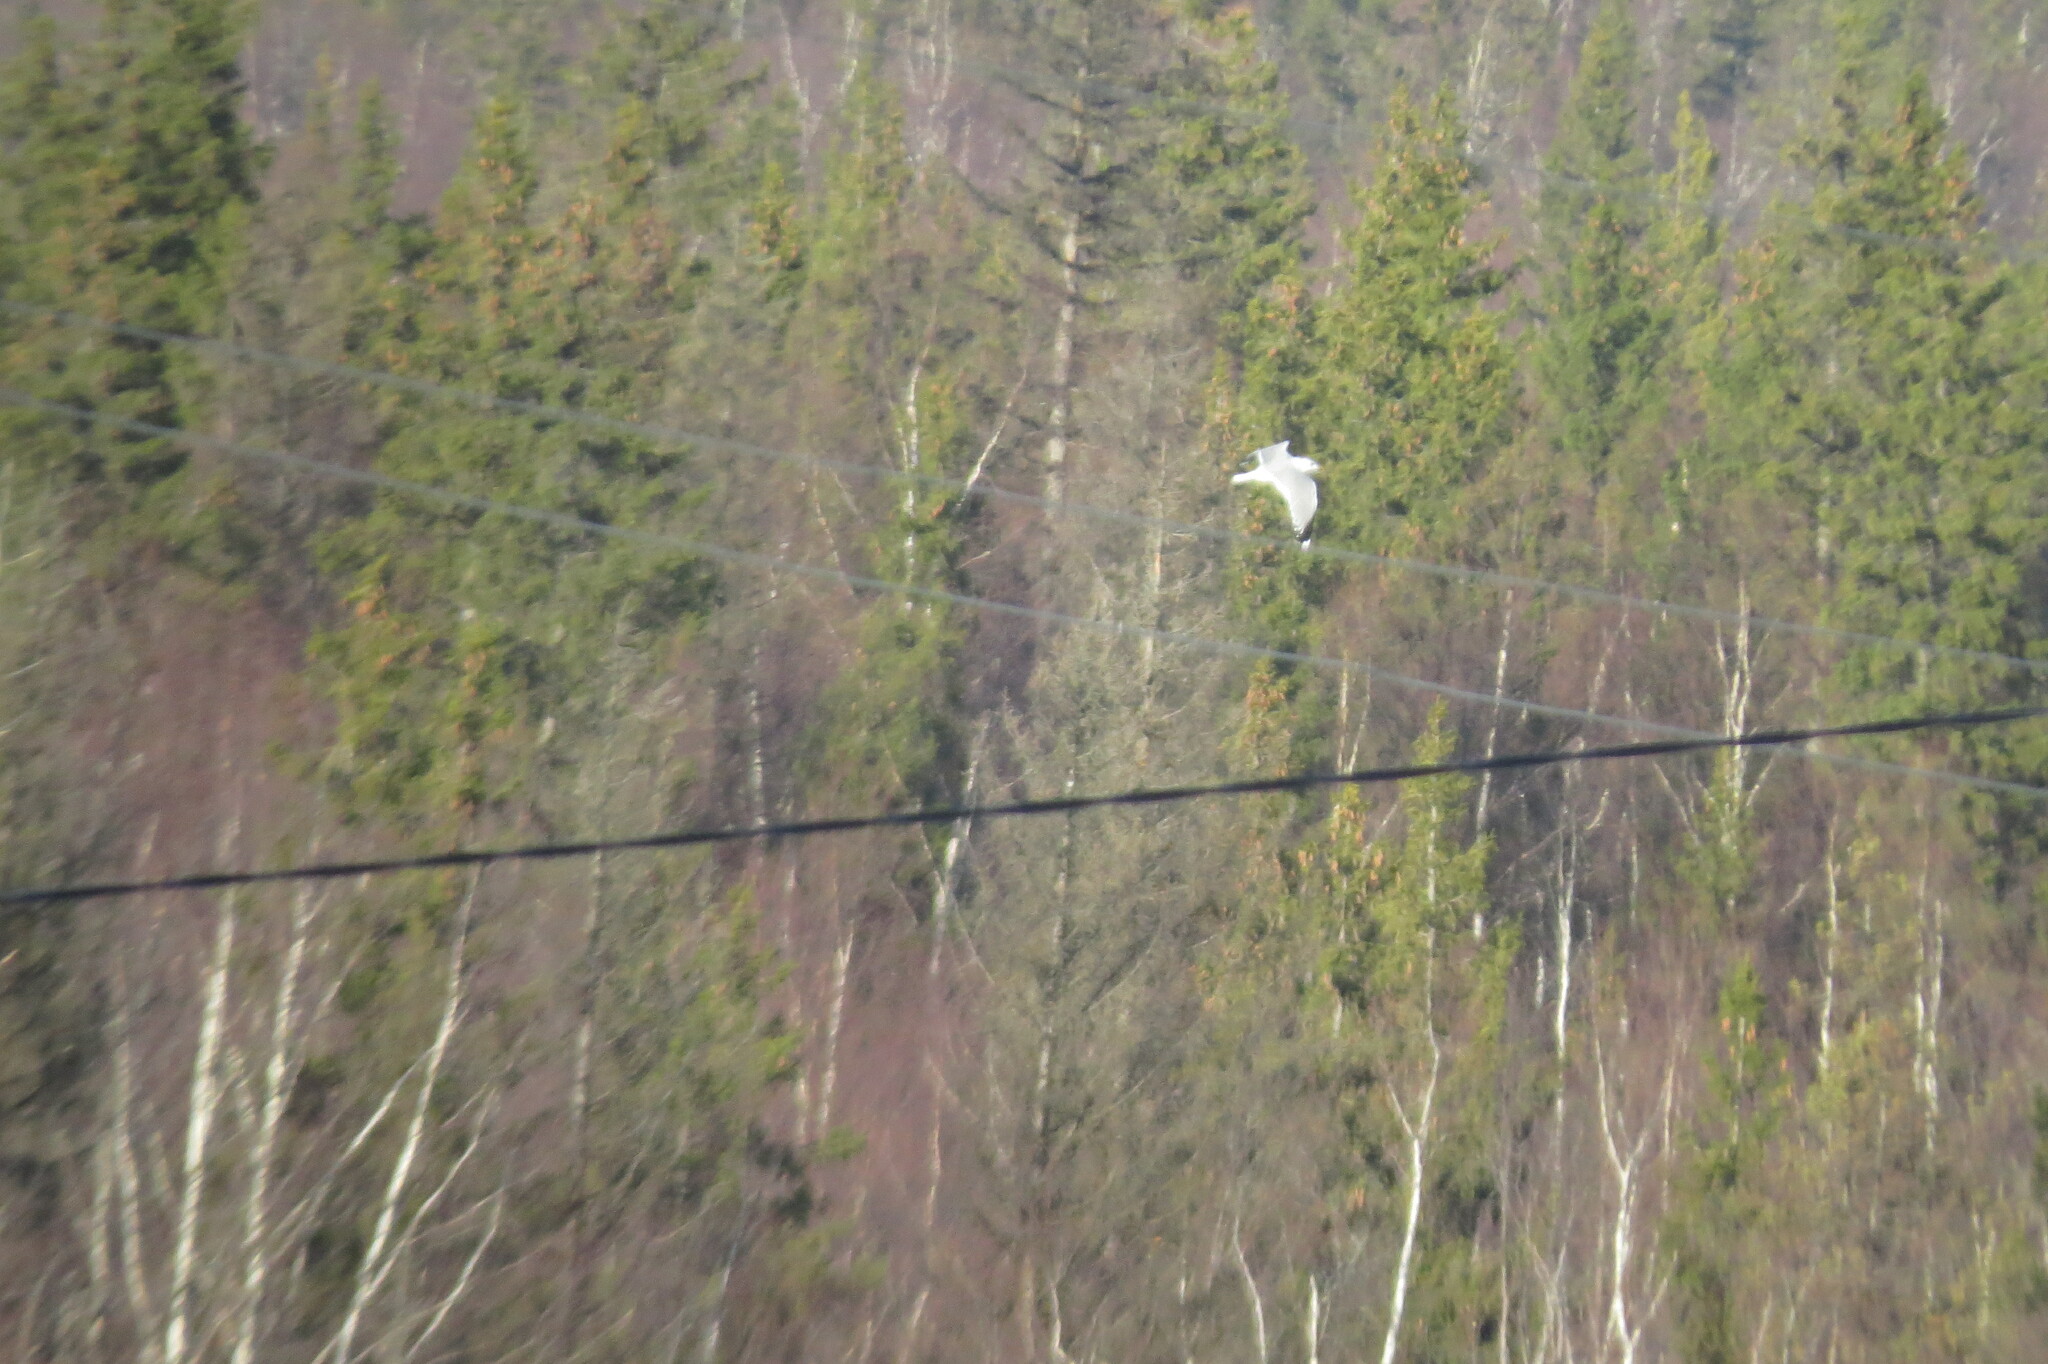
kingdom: Animalia
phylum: Chordata
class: Aves
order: Charadriiformes
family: Laridae
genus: Larus
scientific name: Larus canus
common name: Mew gull
